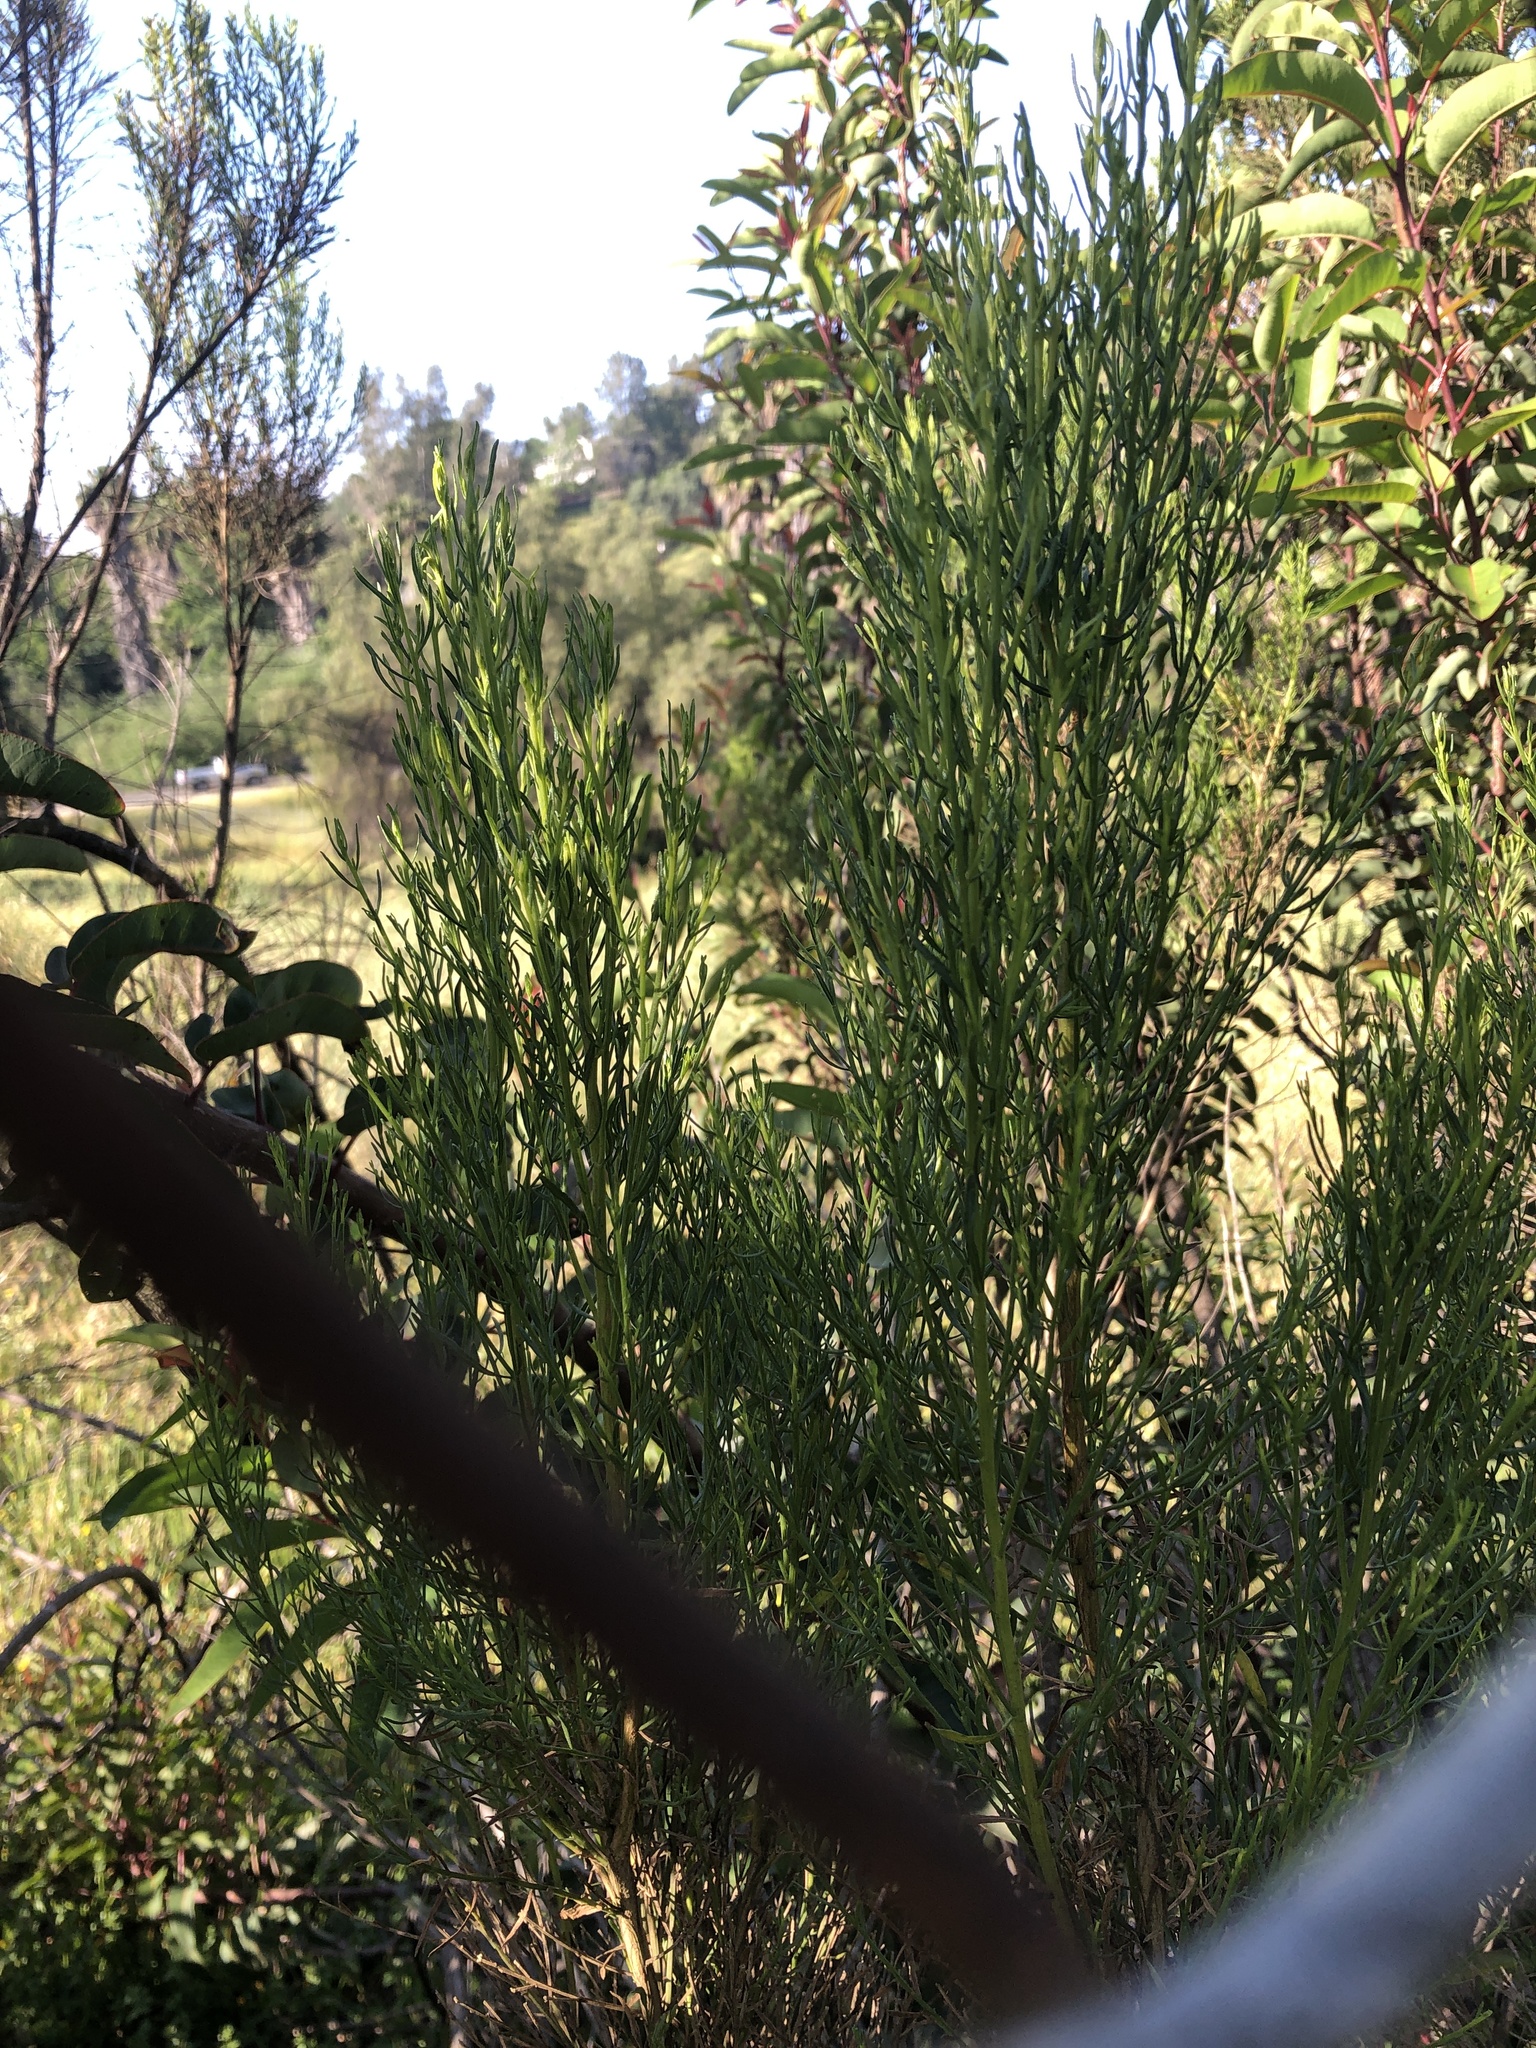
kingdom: Plantae
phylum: Tracheophyta
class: Magnoliopsida
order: Asterales
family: Asteraceae
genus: Baccharis
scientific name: Baccharis sarothroides
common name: Desert-broom
